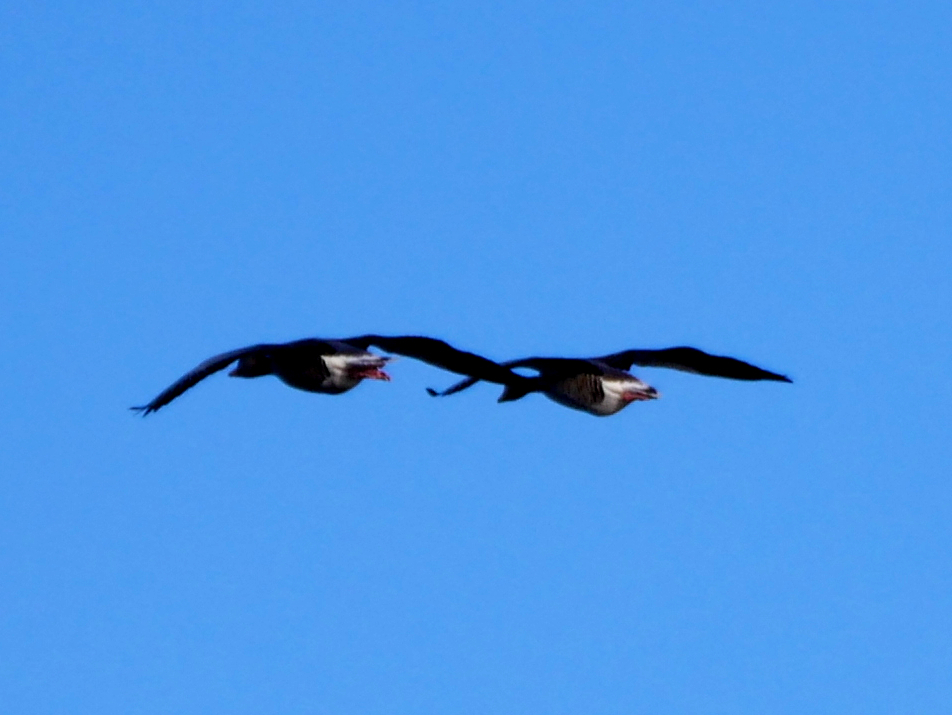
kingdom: Animalia
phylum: Chordata
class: Aves
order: Anseriformes
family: Anatidae
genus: Anser
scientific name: Anser anser
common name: Greylag goose
